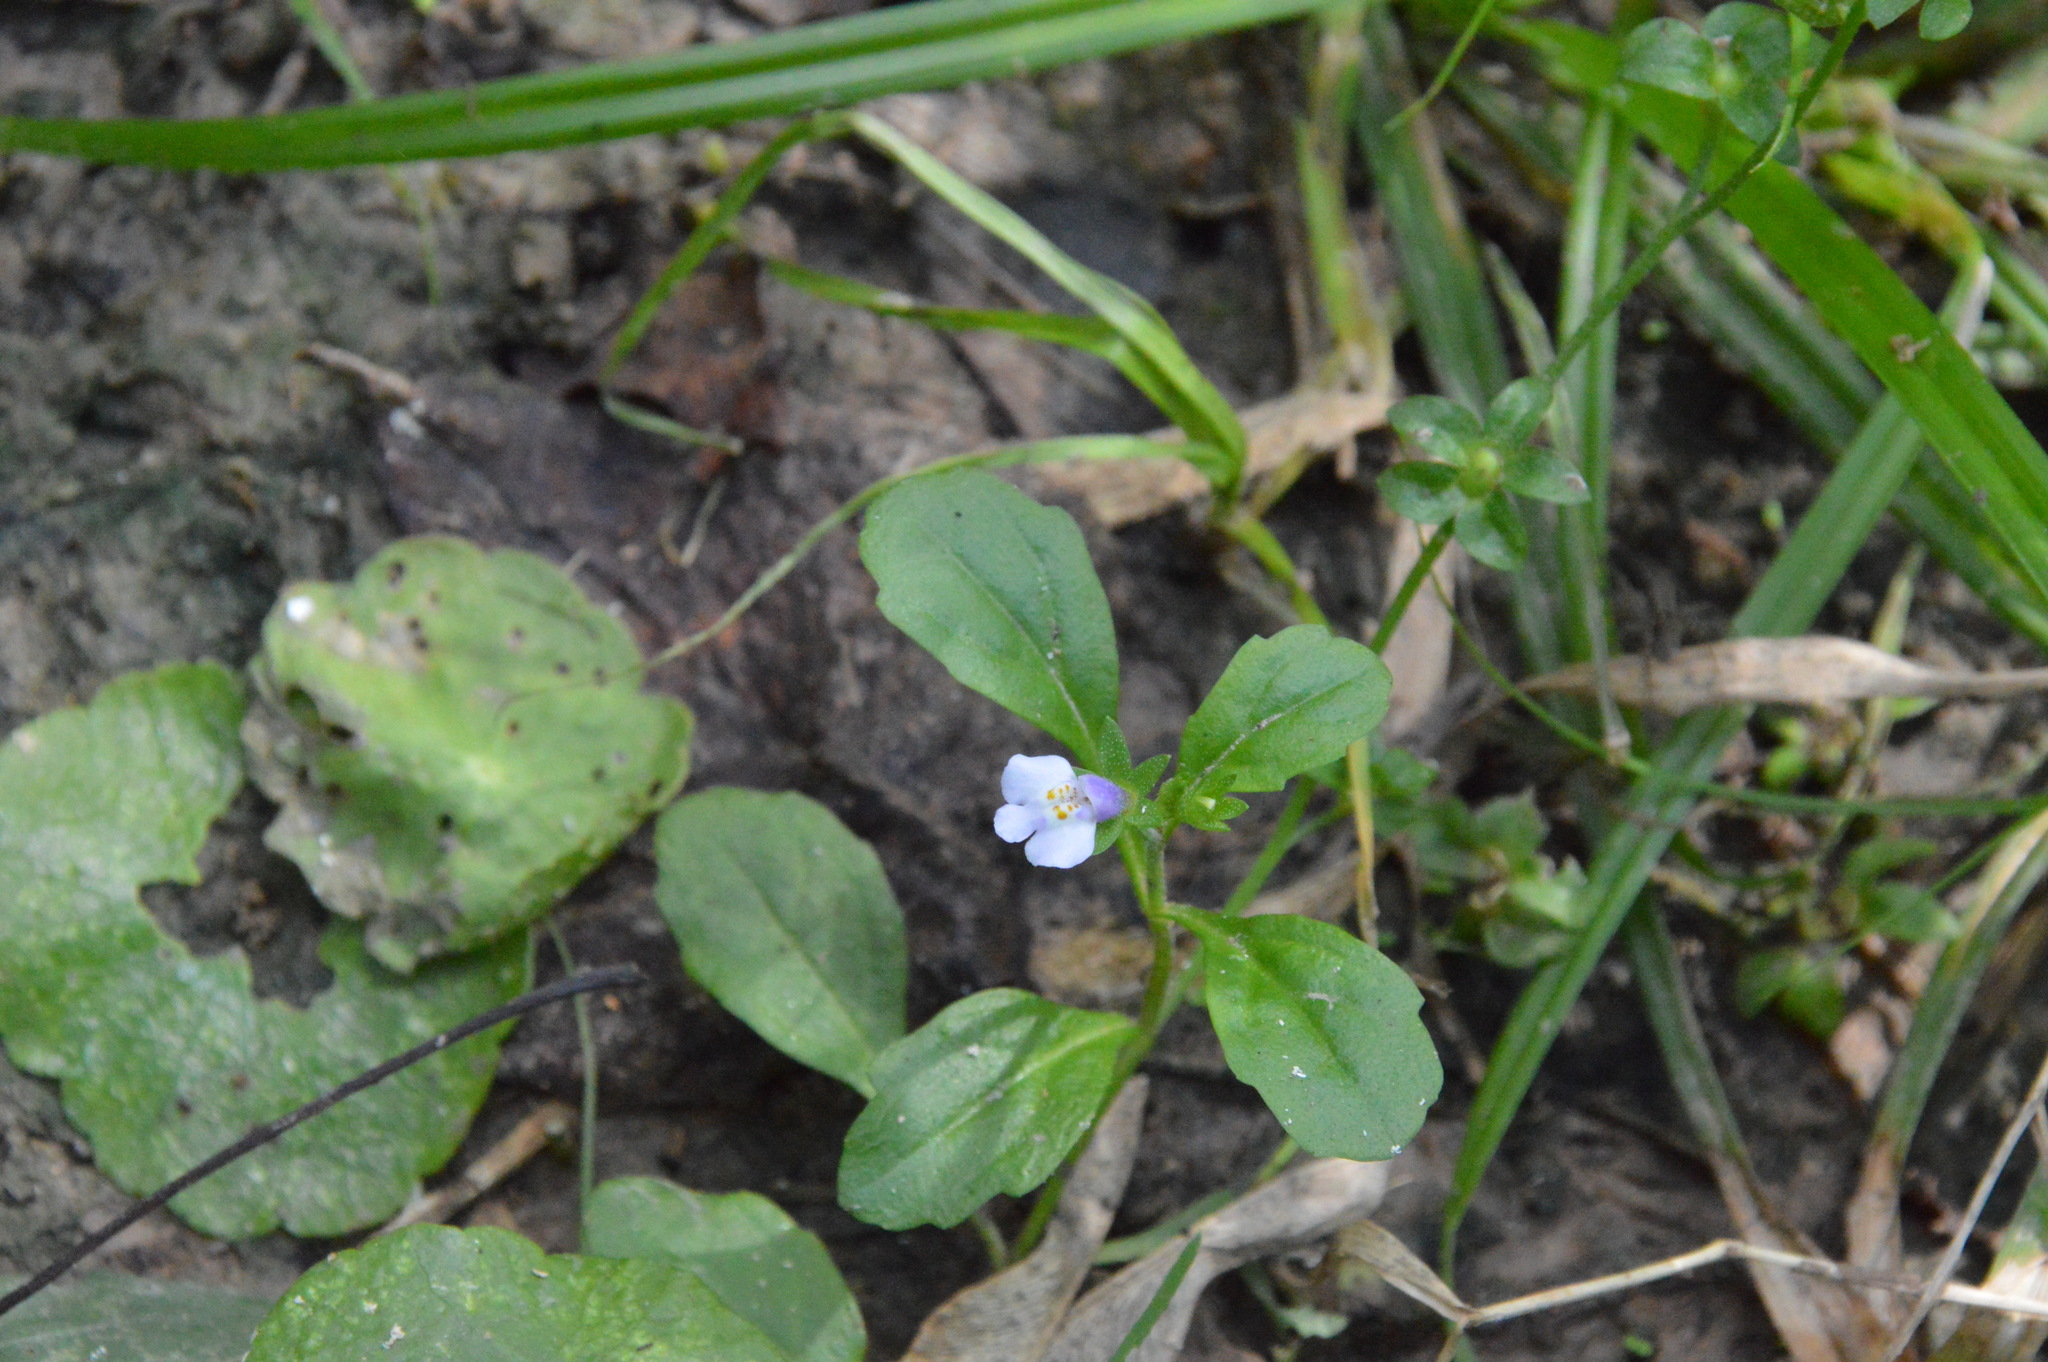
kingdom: Plantae
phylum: Tracheophyta
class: Magnoliopsida
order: Lamiales
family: Mazaceae
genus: Mazus
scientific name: Mazus pumilus
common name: Japanese mazus
